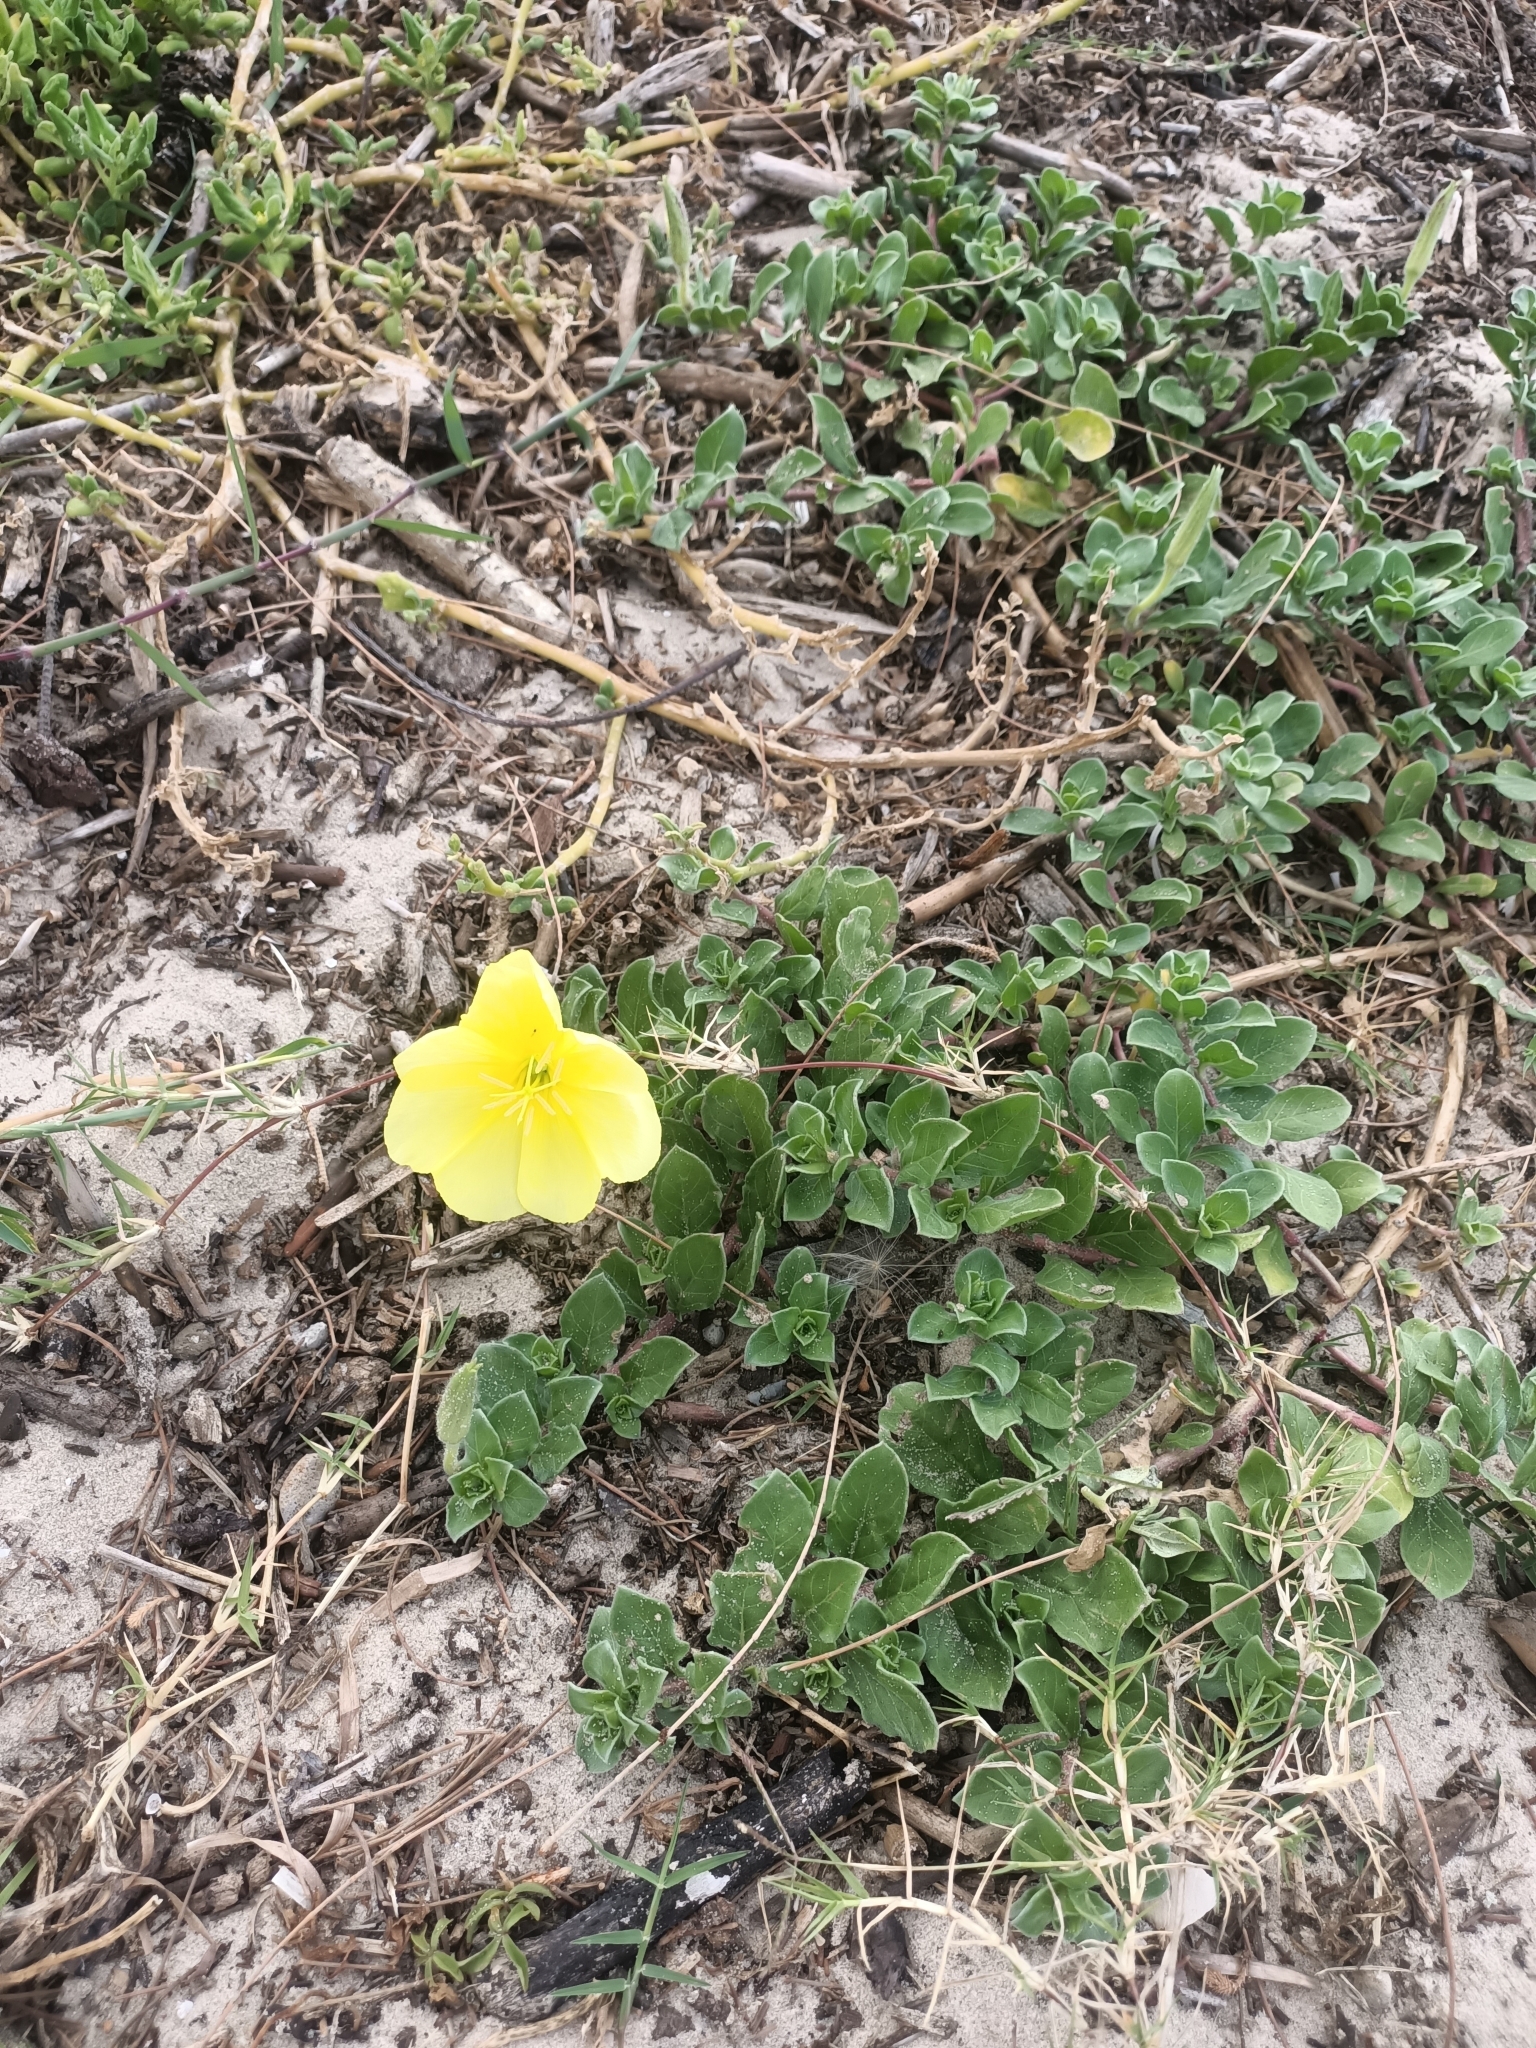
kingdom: Plantae
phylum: Tracheophyta
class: Magnoliopsida
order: Myrtales
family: Onagraceae
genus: Oenothera
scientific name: Oenothera drummondii
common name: Beach evening-primrose
